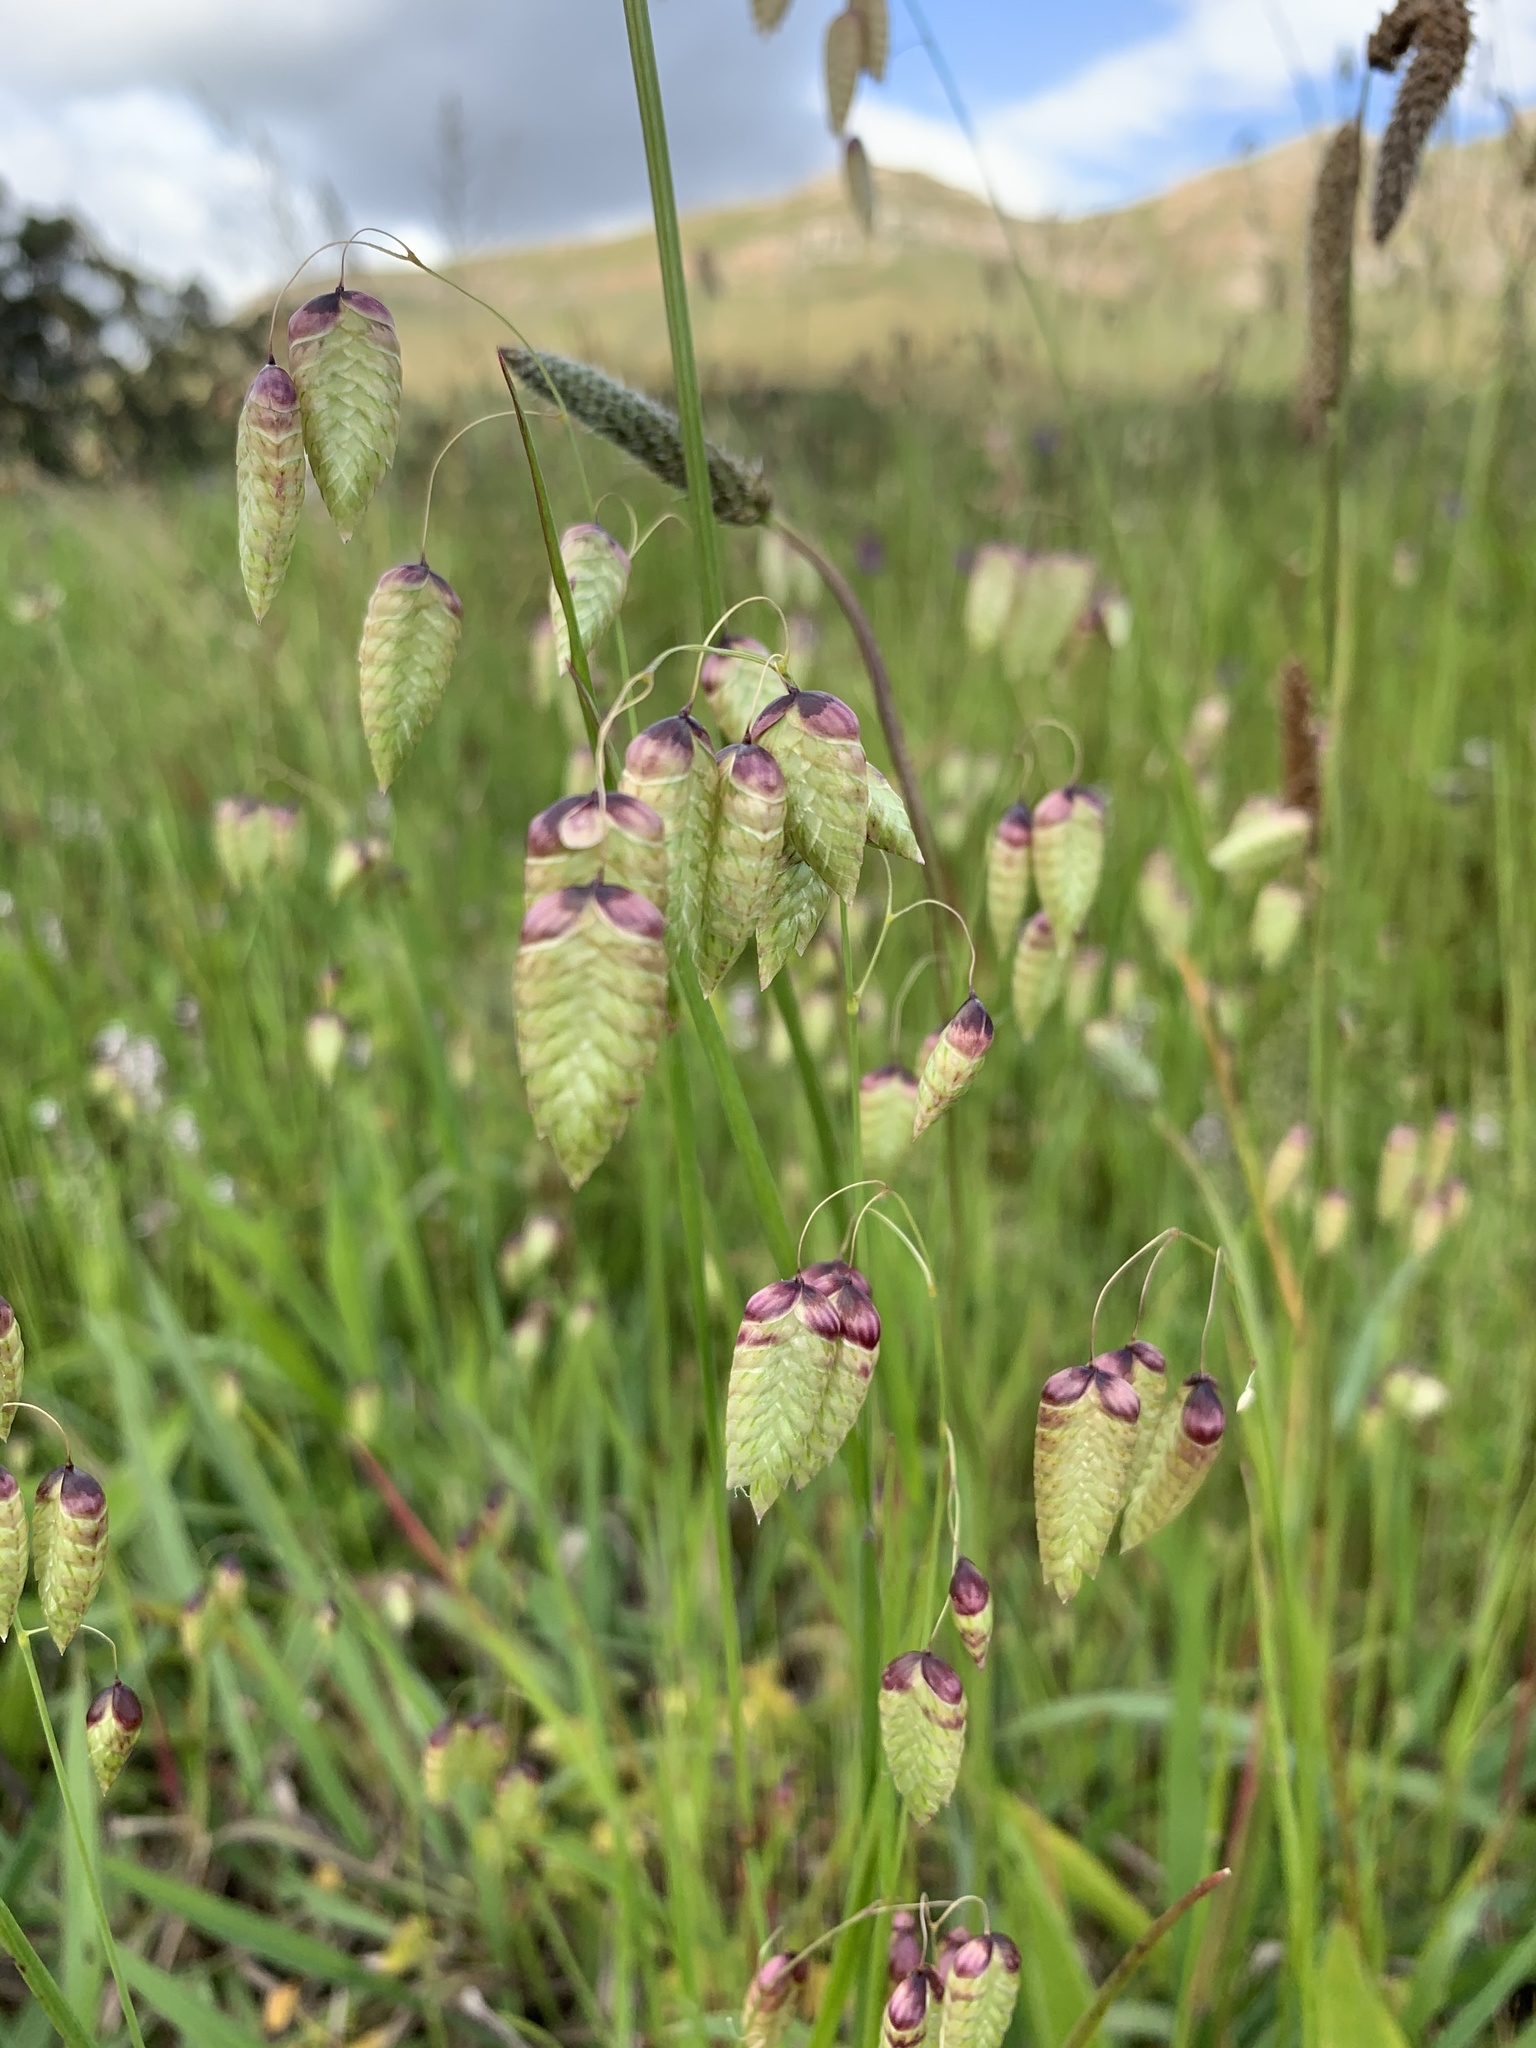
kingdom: Plantae
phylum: Tracheophyta
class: Liliopsida
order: Poales
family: Poaceae
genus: Briza
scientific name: Briza maxima
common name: Big quakinggrass
